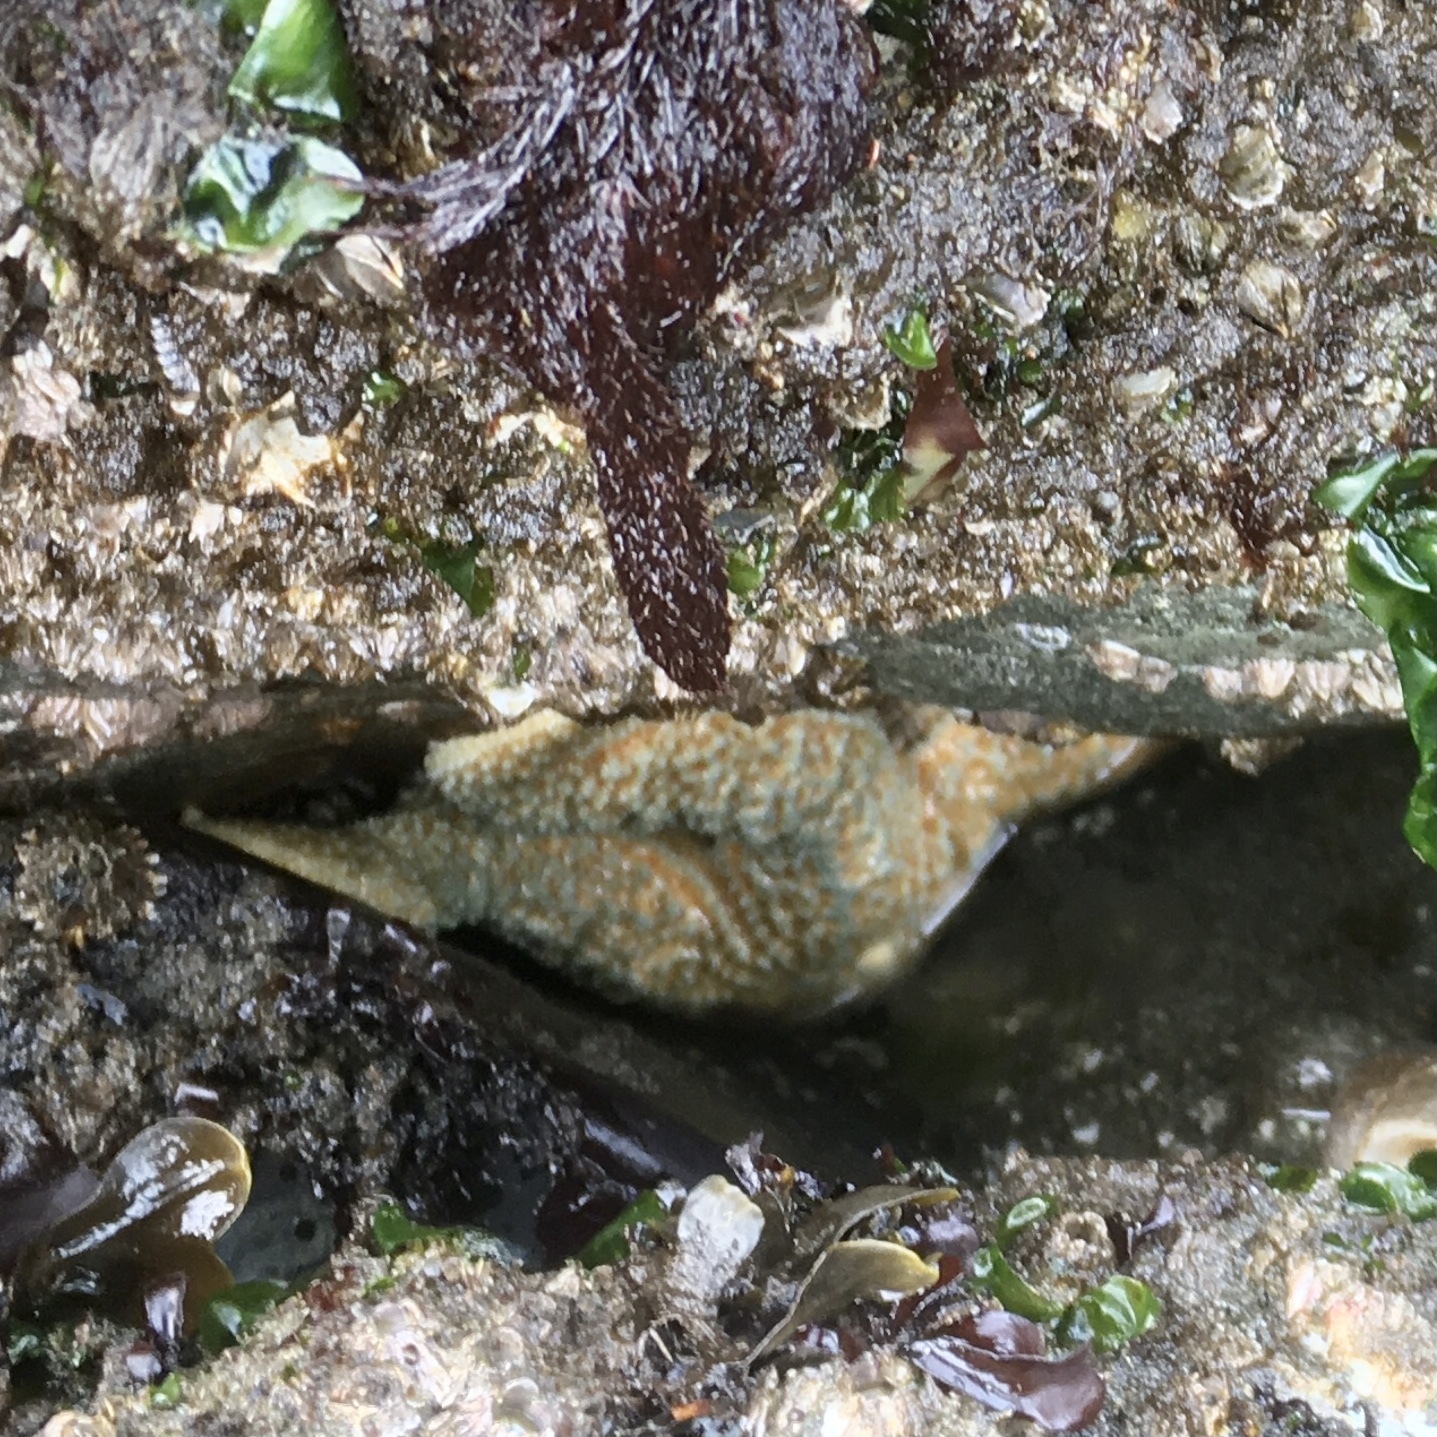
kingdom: Animalia
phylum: Echinodermata
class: Asteroidea
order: Forcipulatida
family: Asteriidae
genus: Evasterias
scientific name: Evasterias troschelii
